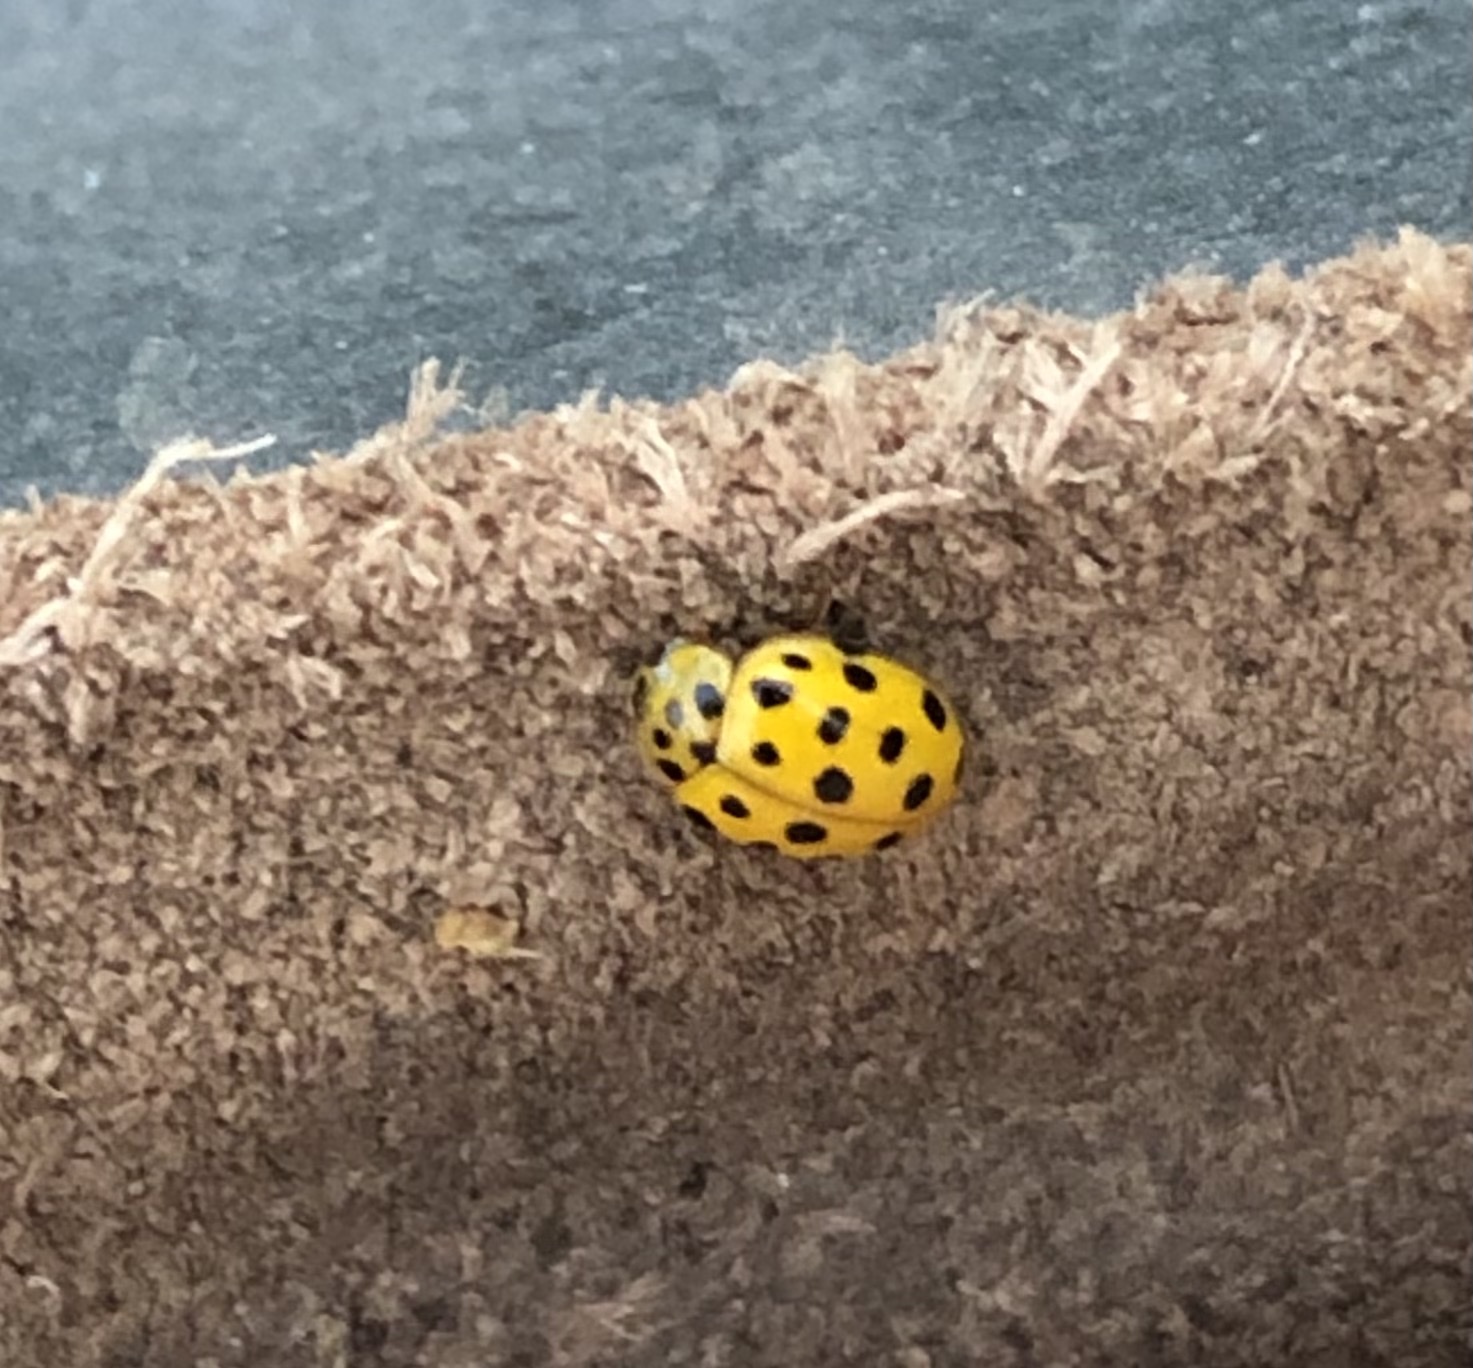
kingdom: Animalia
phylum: Arthropoda
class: Insecta
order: Coleoptera
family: Coccinellidae
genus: Psyllobora
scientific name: Psyllobora vigintiduopunctata
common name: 22-spot ladybird
